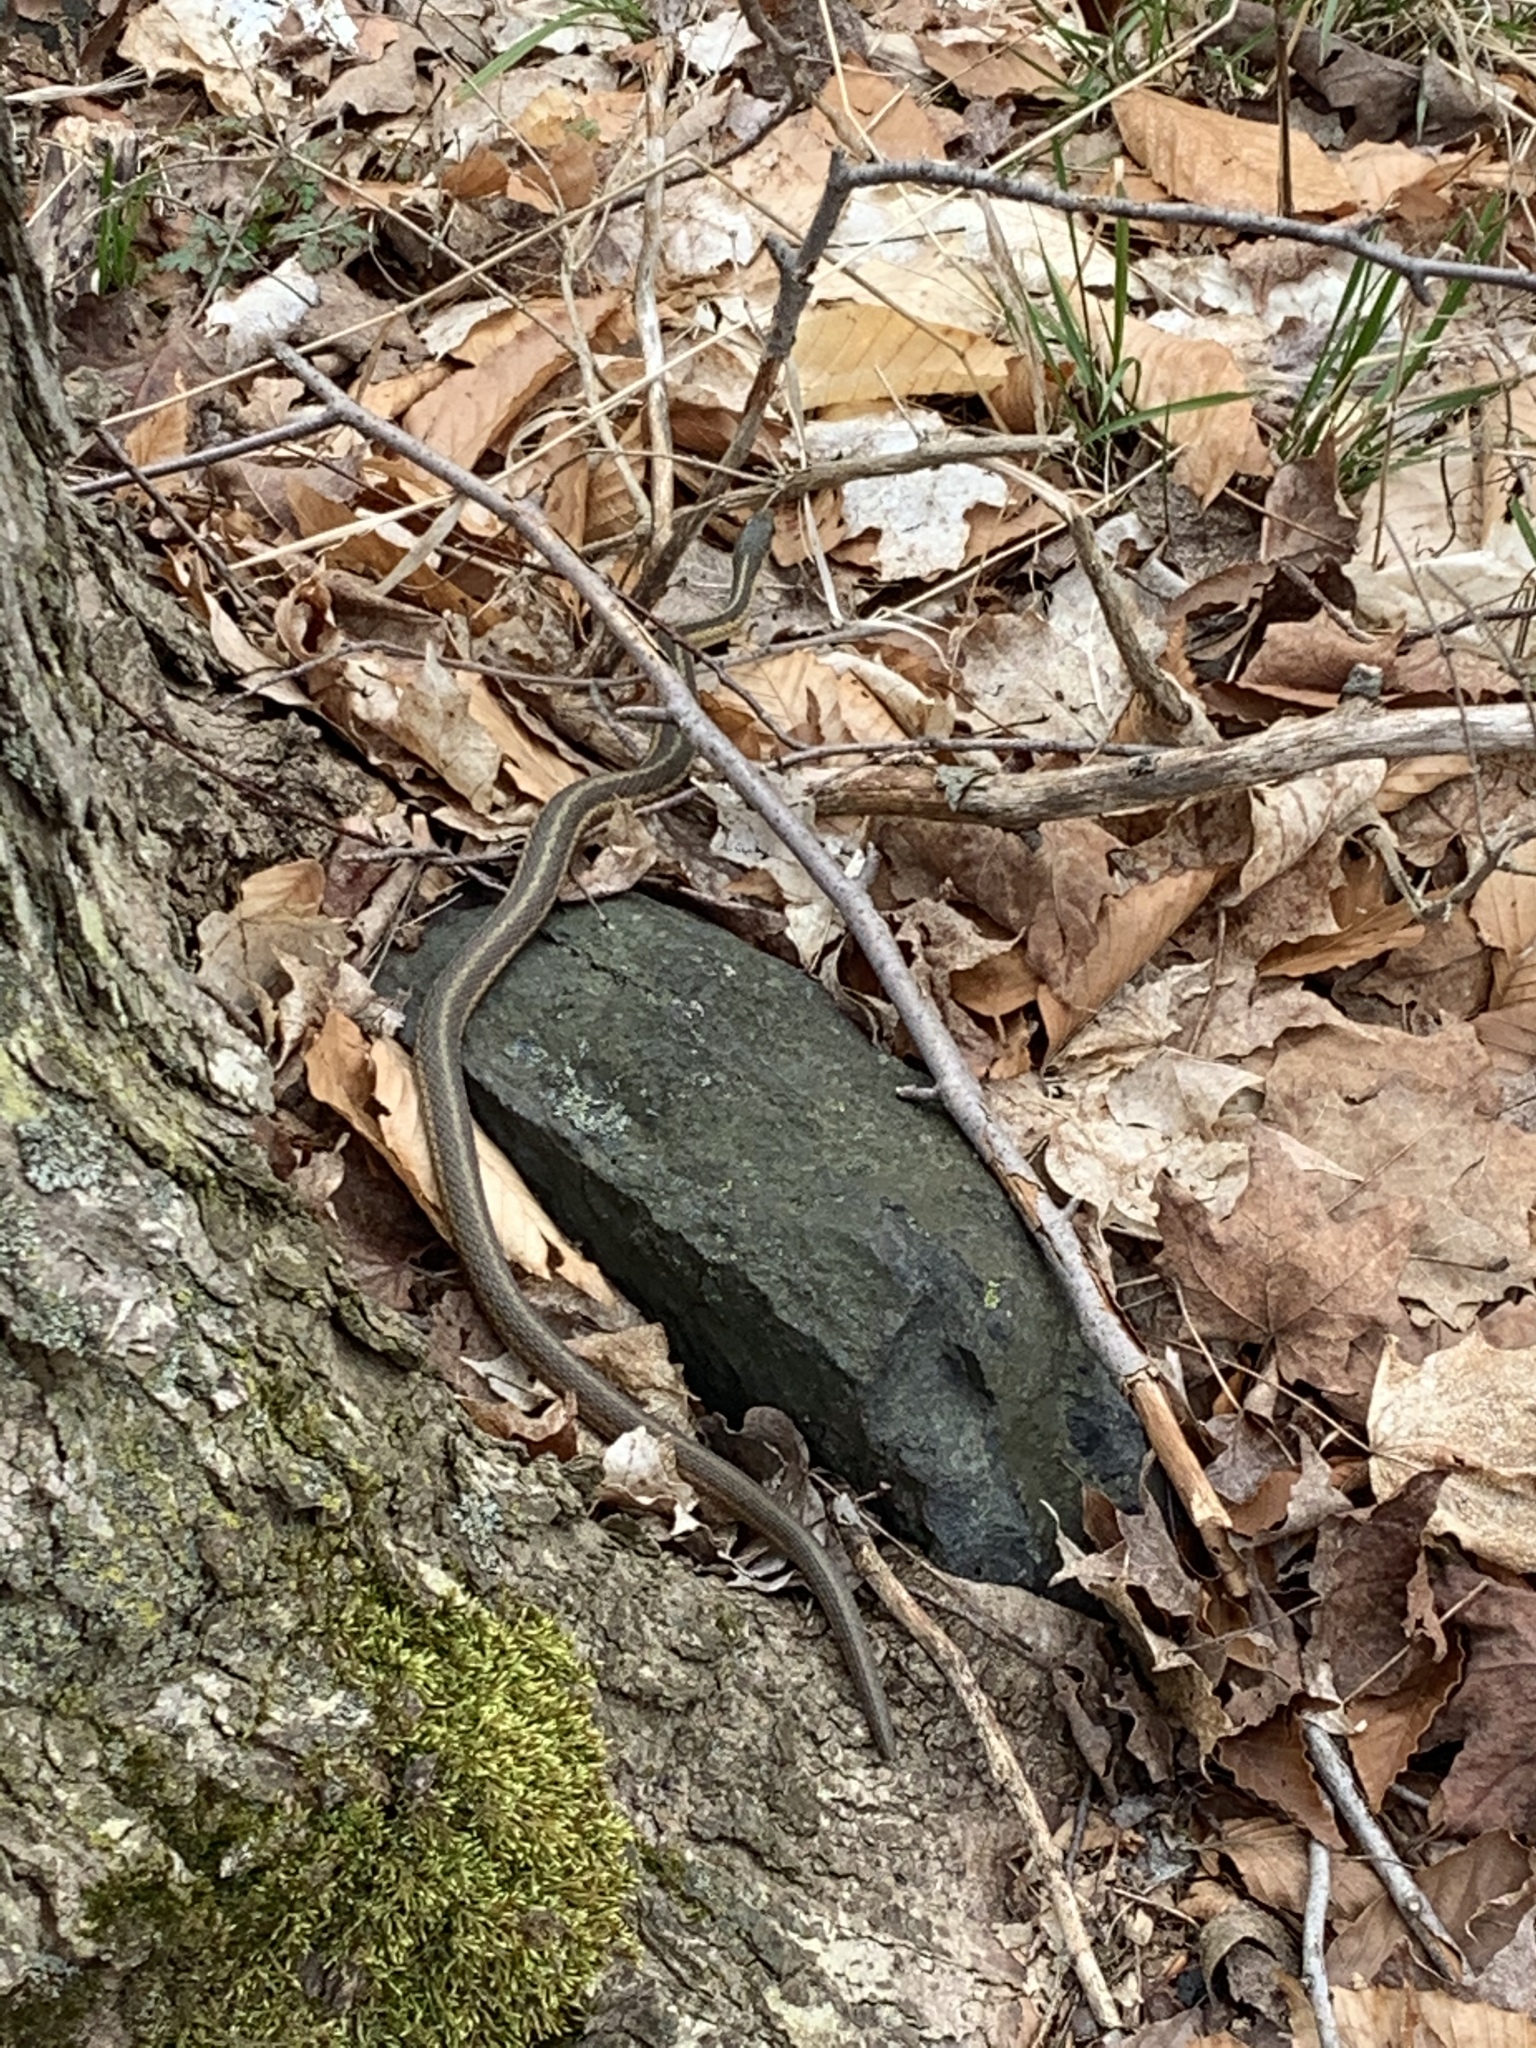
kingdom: Animalia
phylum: Chordata
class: Squamata
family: Colubridae
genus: Thamnophis
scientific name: Thamnophis sirtalis
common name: Common garter snake
